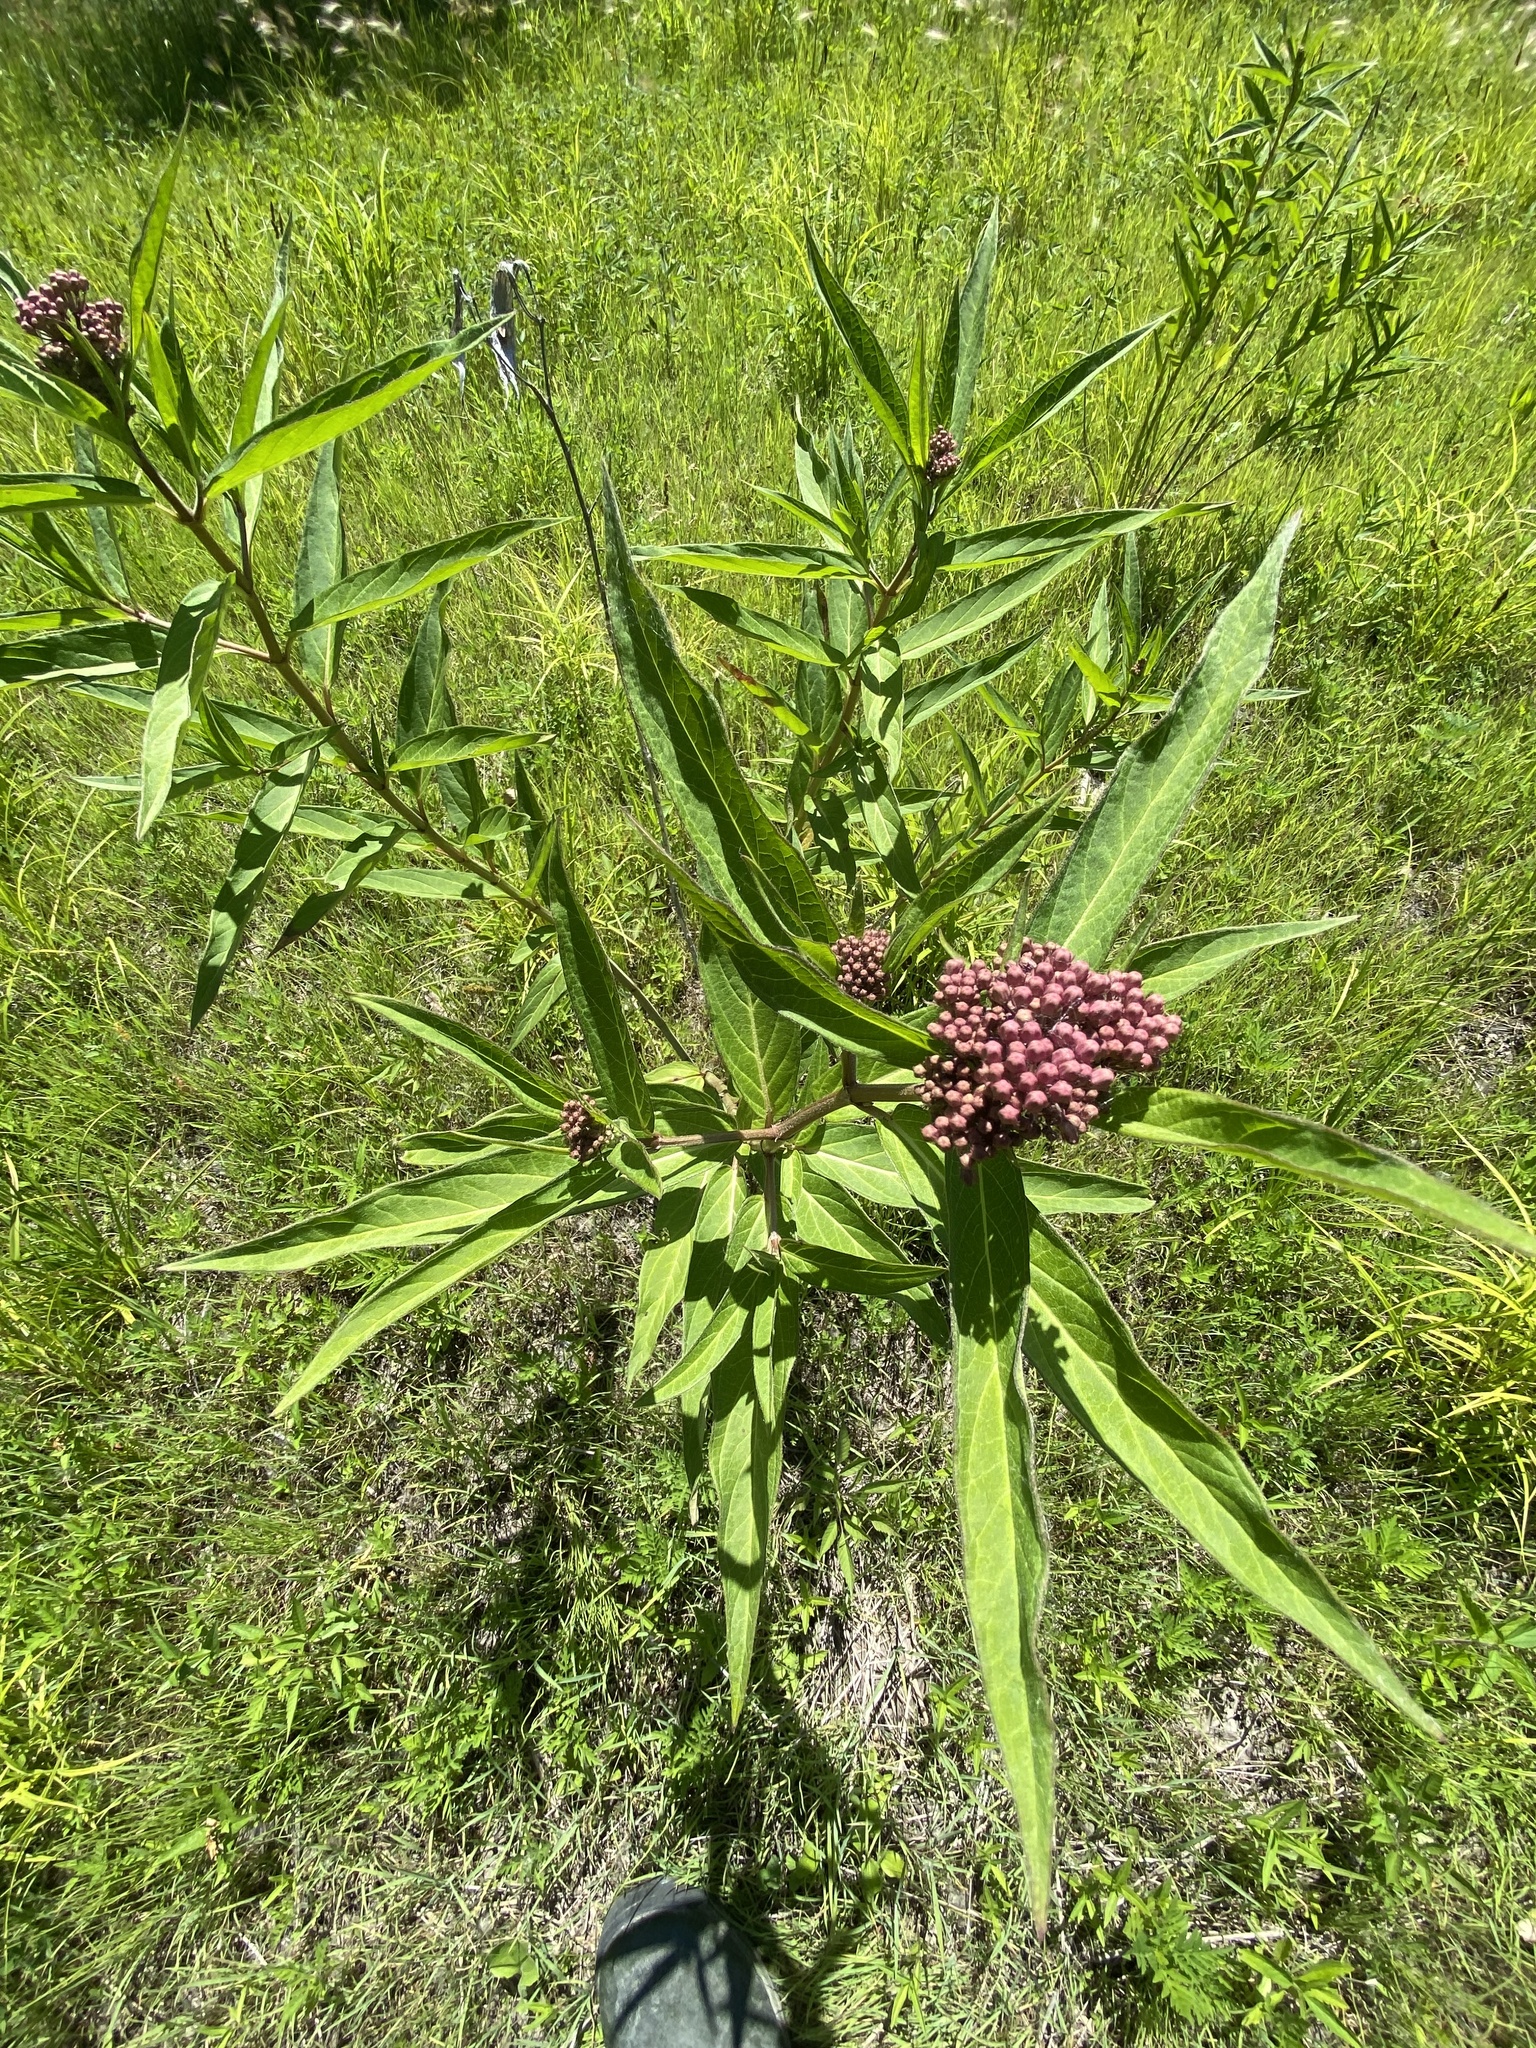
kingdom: Plantae
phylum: Tracheophyta
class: Magnoliopsida
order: Gentianales
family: Apocynaceae
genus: Asclepias
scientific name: Asclepias incarnata
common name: Swamp milkweed
